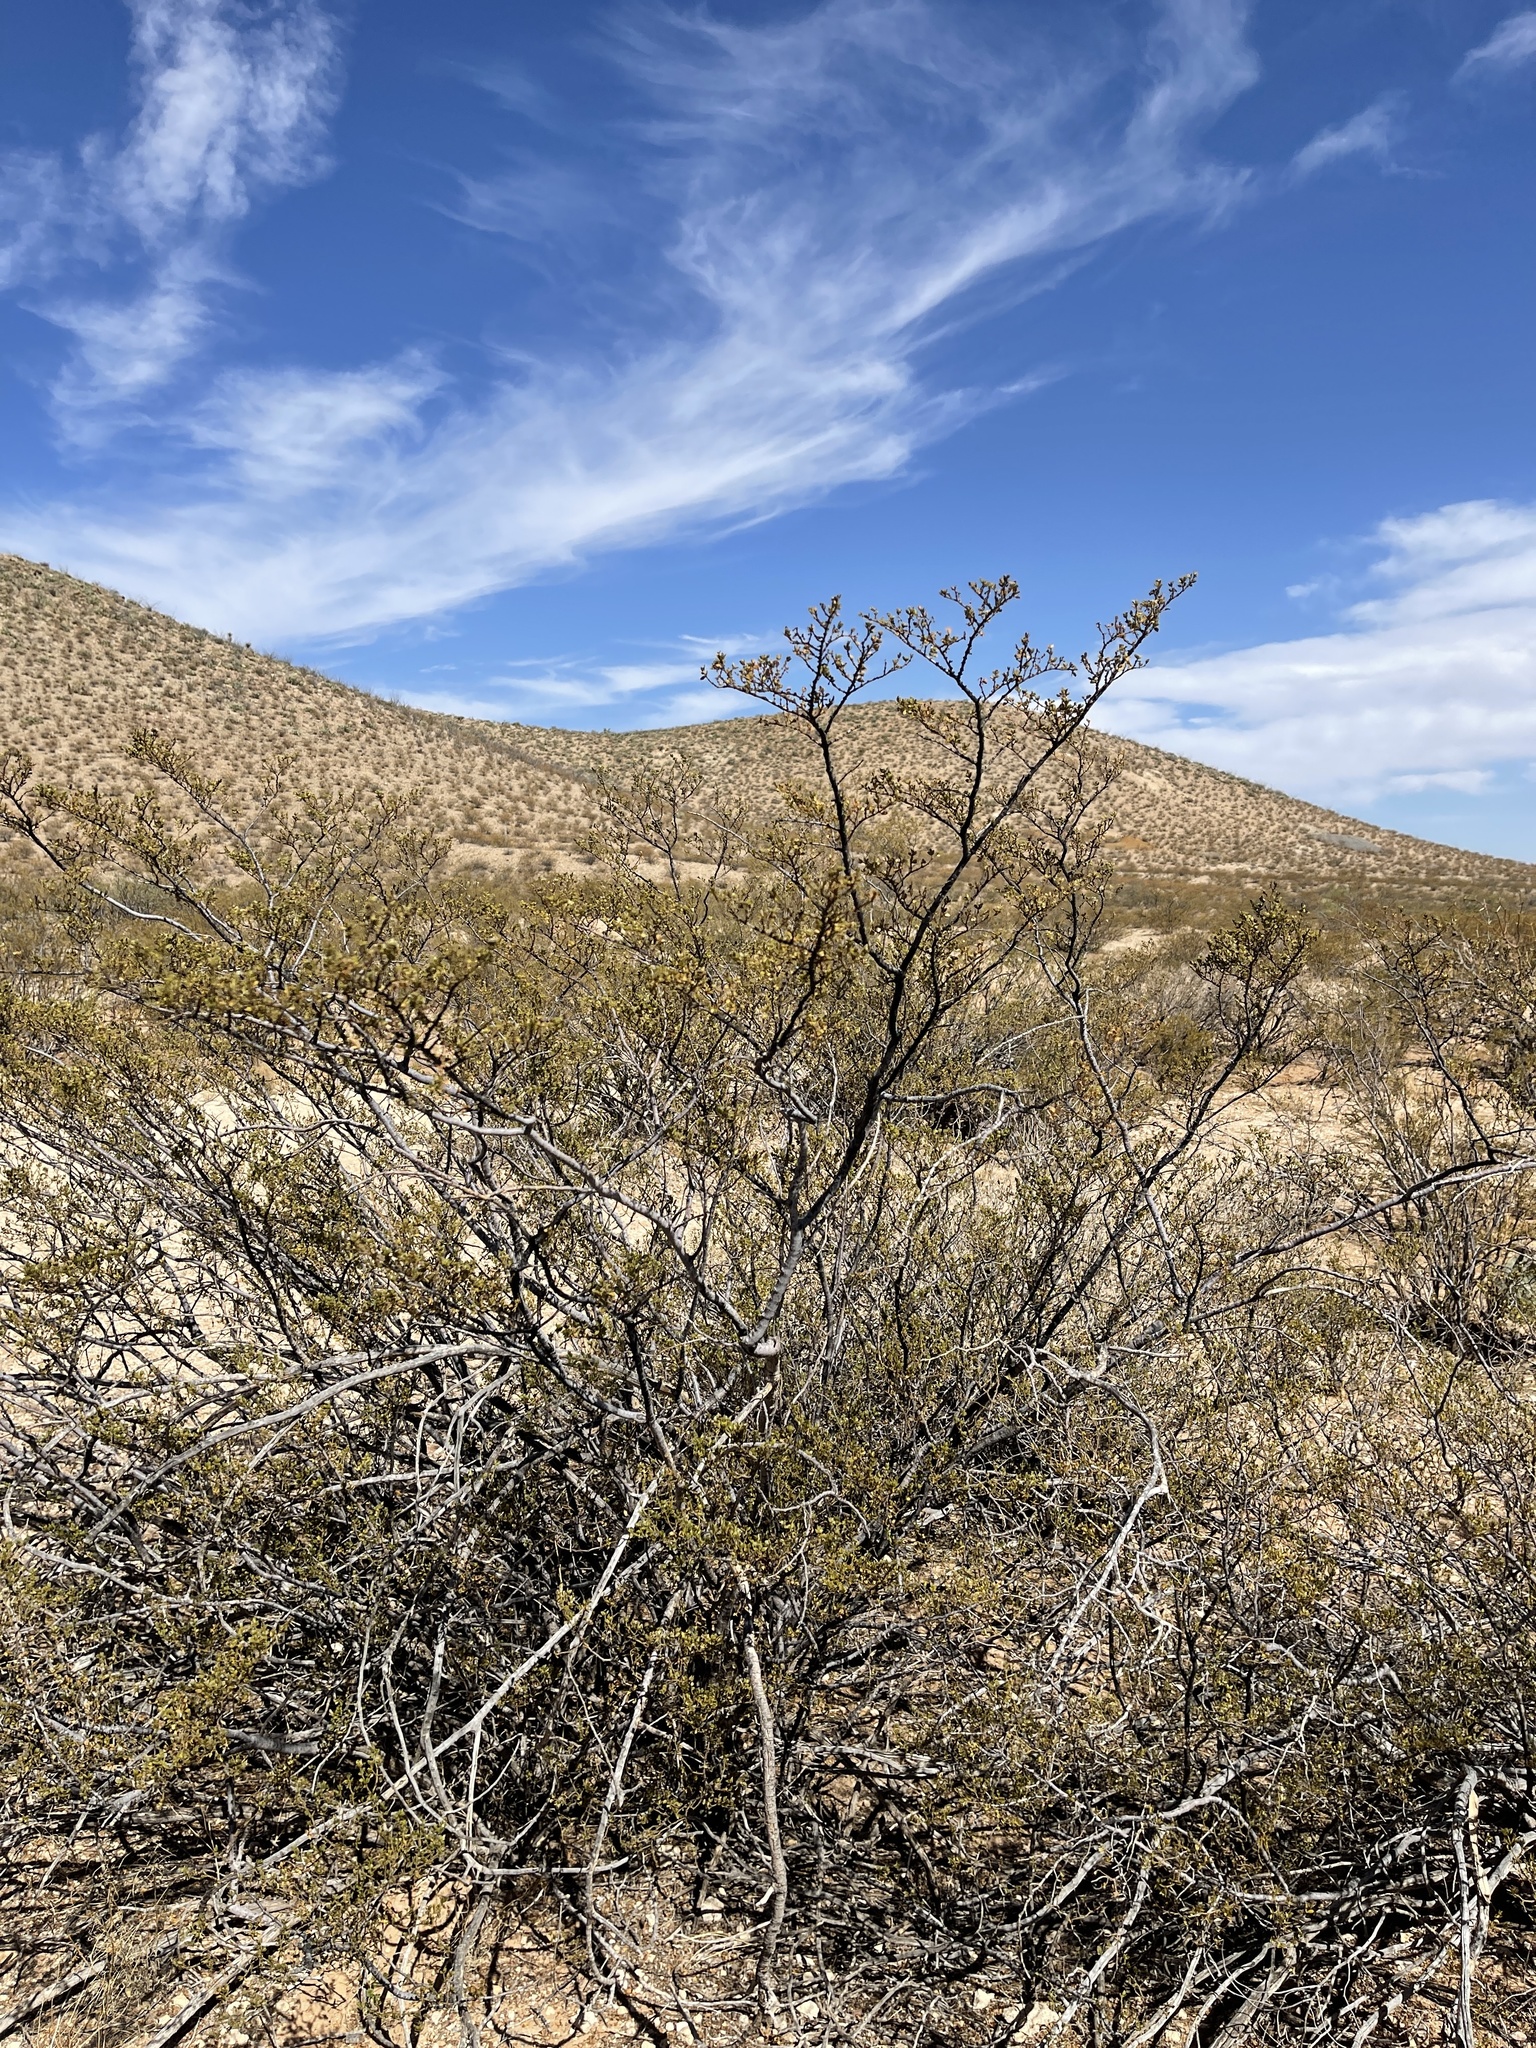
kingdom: Plantae
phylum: Tracheophyta
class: Magnoliopsida
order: Zygophyllales
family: Zygophyllaceae
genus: Larrea
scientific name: Larrea tridentata
